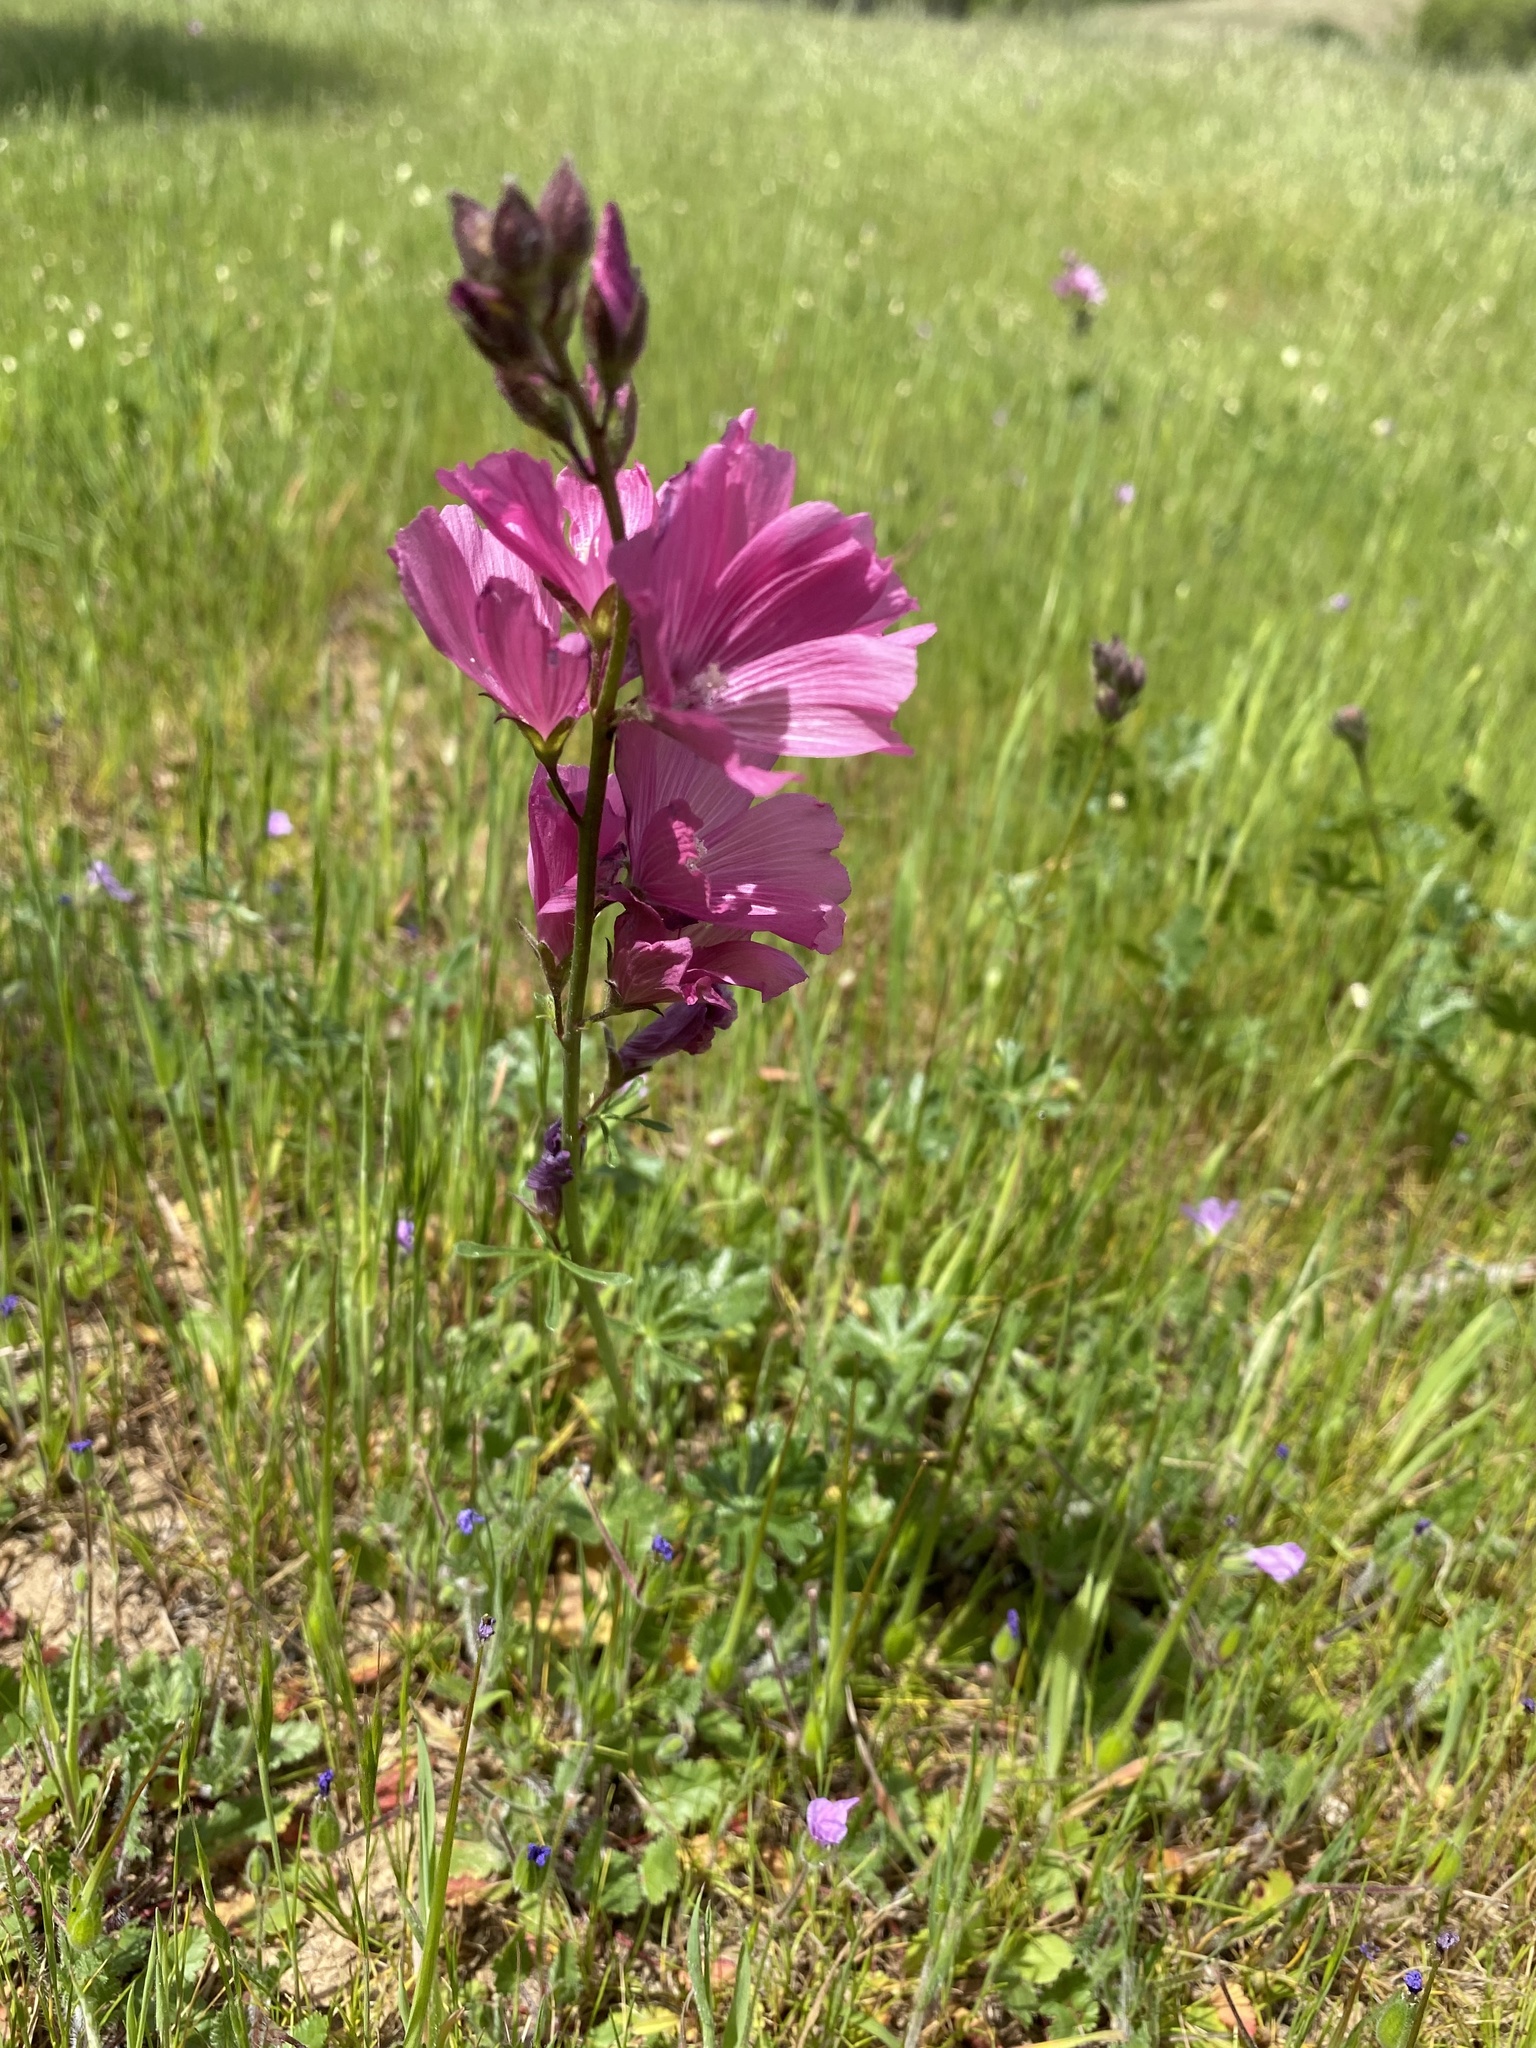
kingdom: Plantae
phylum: Tracheophyta
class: Magnoliopsida
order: Malvales
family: Malvaceae
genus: Sidalcea
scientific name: Sidalcea malviflora
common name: Greek mallow
